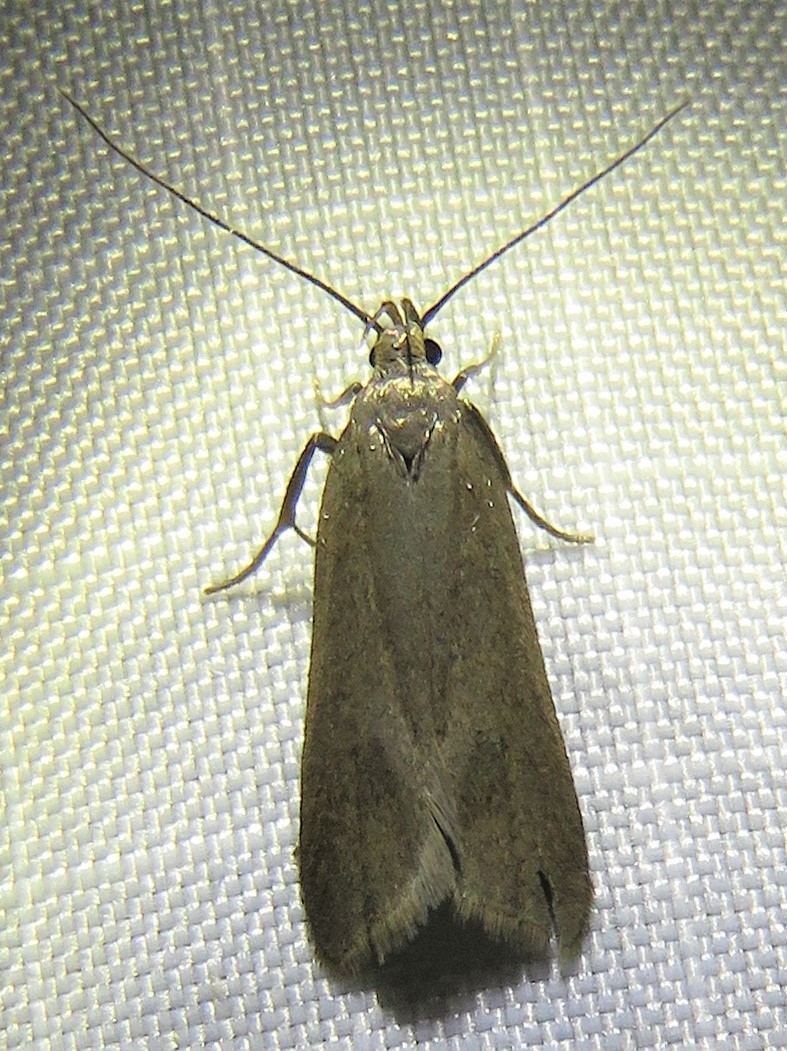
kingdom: Animalia
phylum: Arthropoda
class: Insecta
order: Lepidoptera
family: Gelechiidae
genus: Acompsia
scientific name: Acompsia cinerella
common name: Ash-coloured sober
